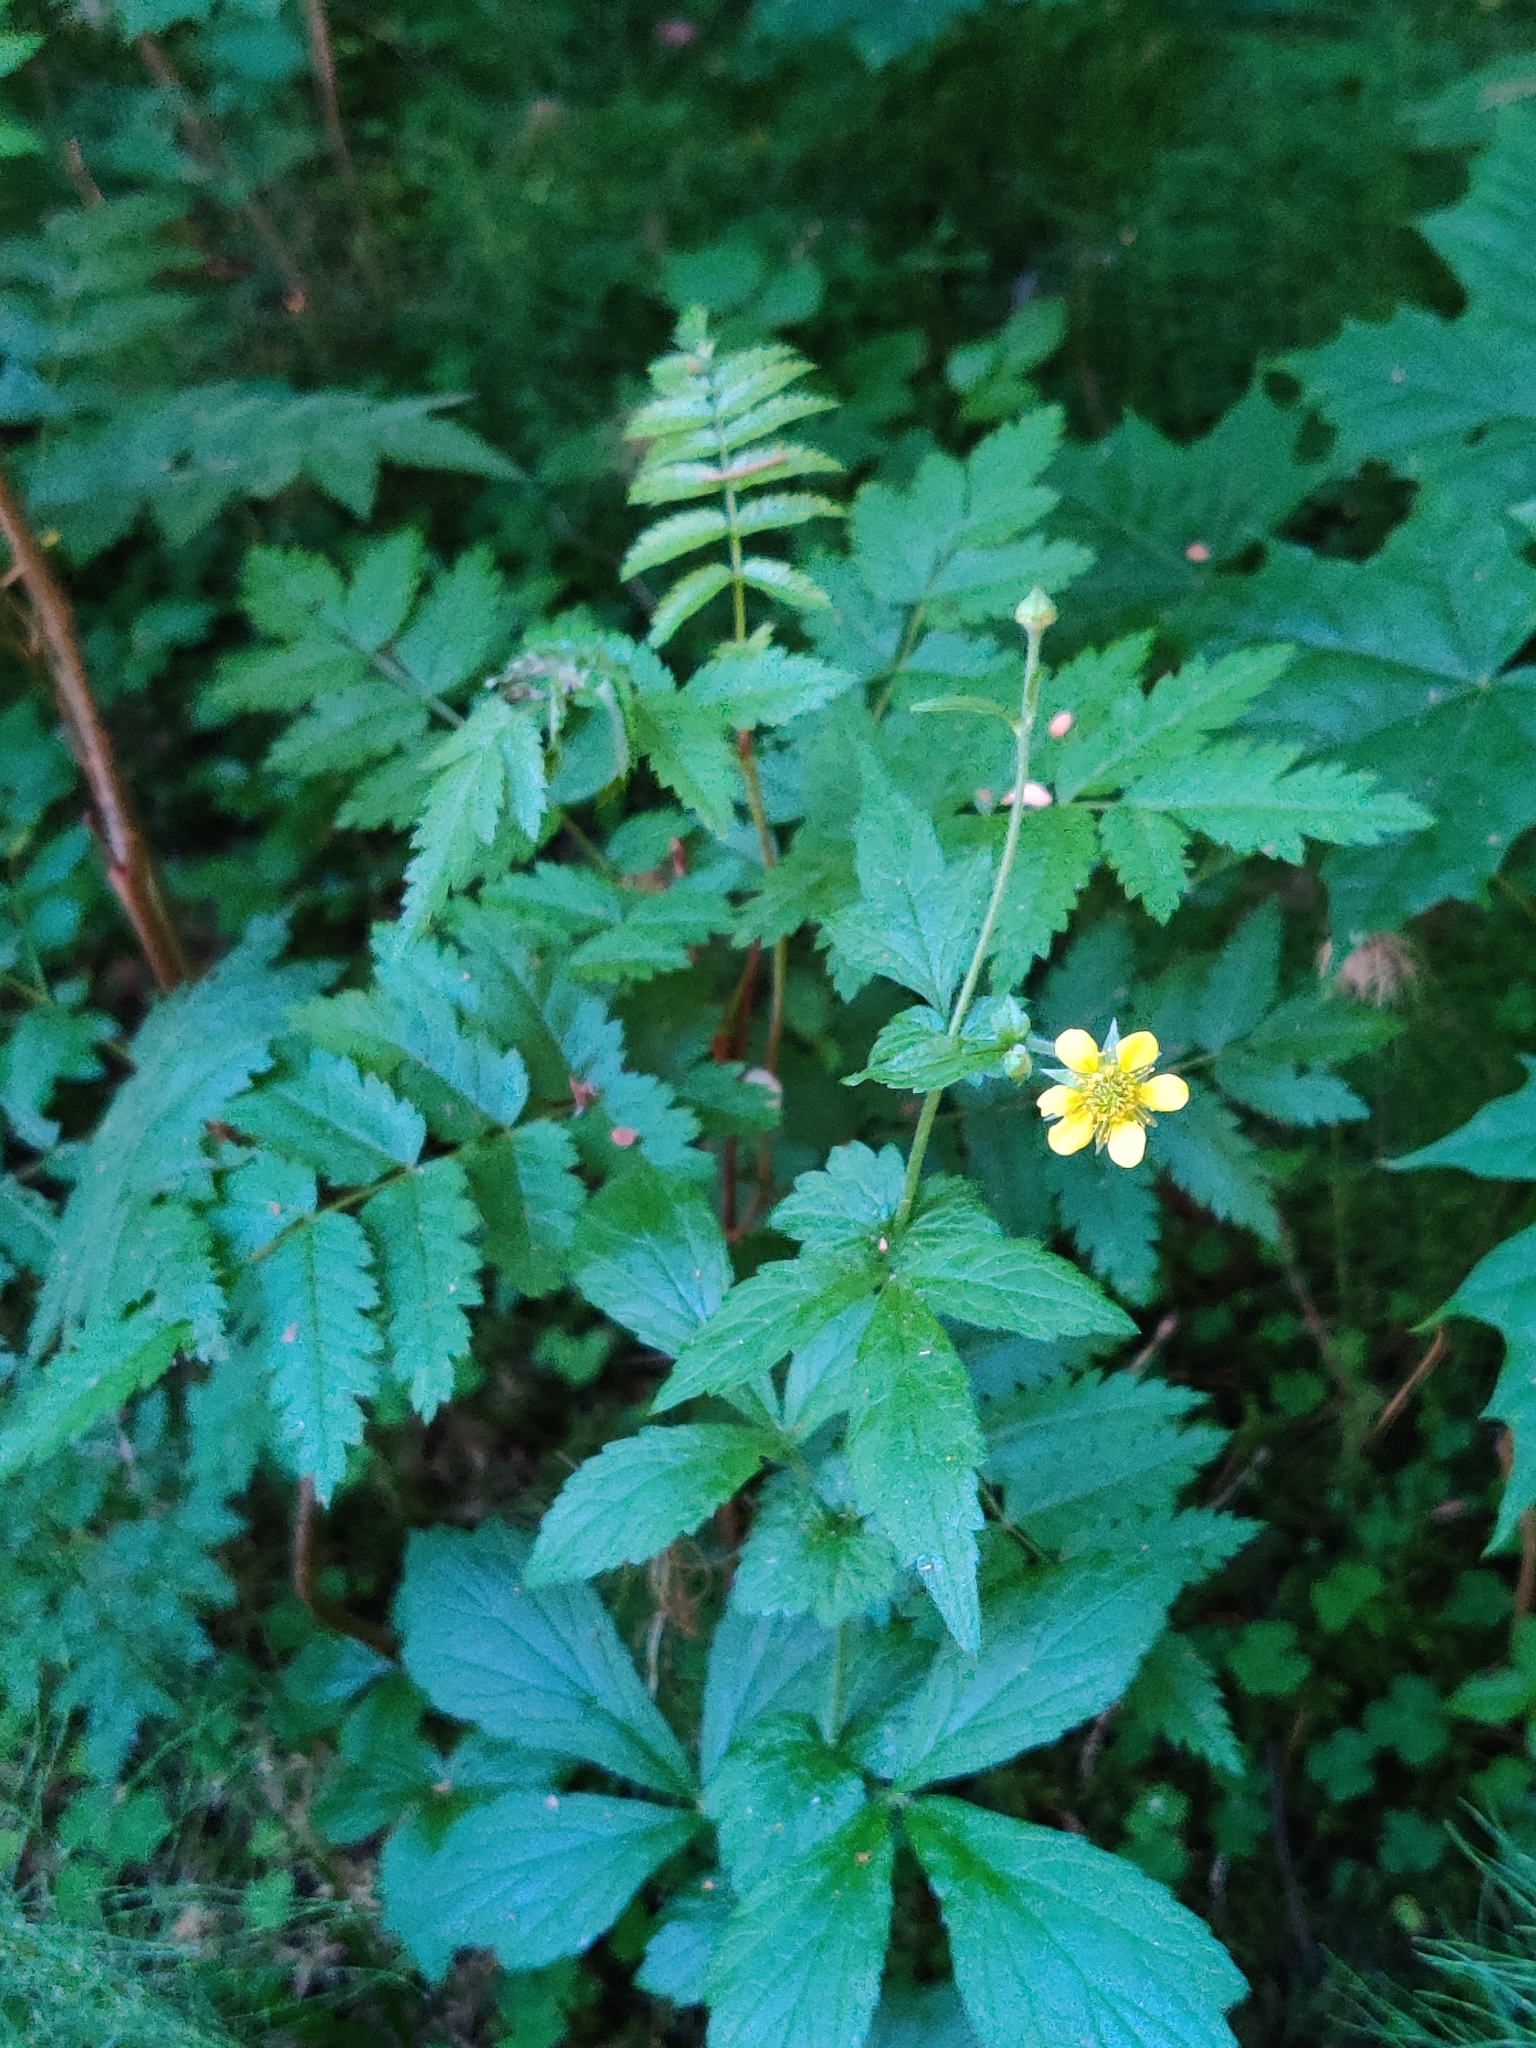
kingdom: Plantae
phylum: Tracheophyta
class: Magnoliopsida
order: Rosales
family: Rosaceae
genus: Geum
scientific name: Geum urbanum
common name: Wood avens
